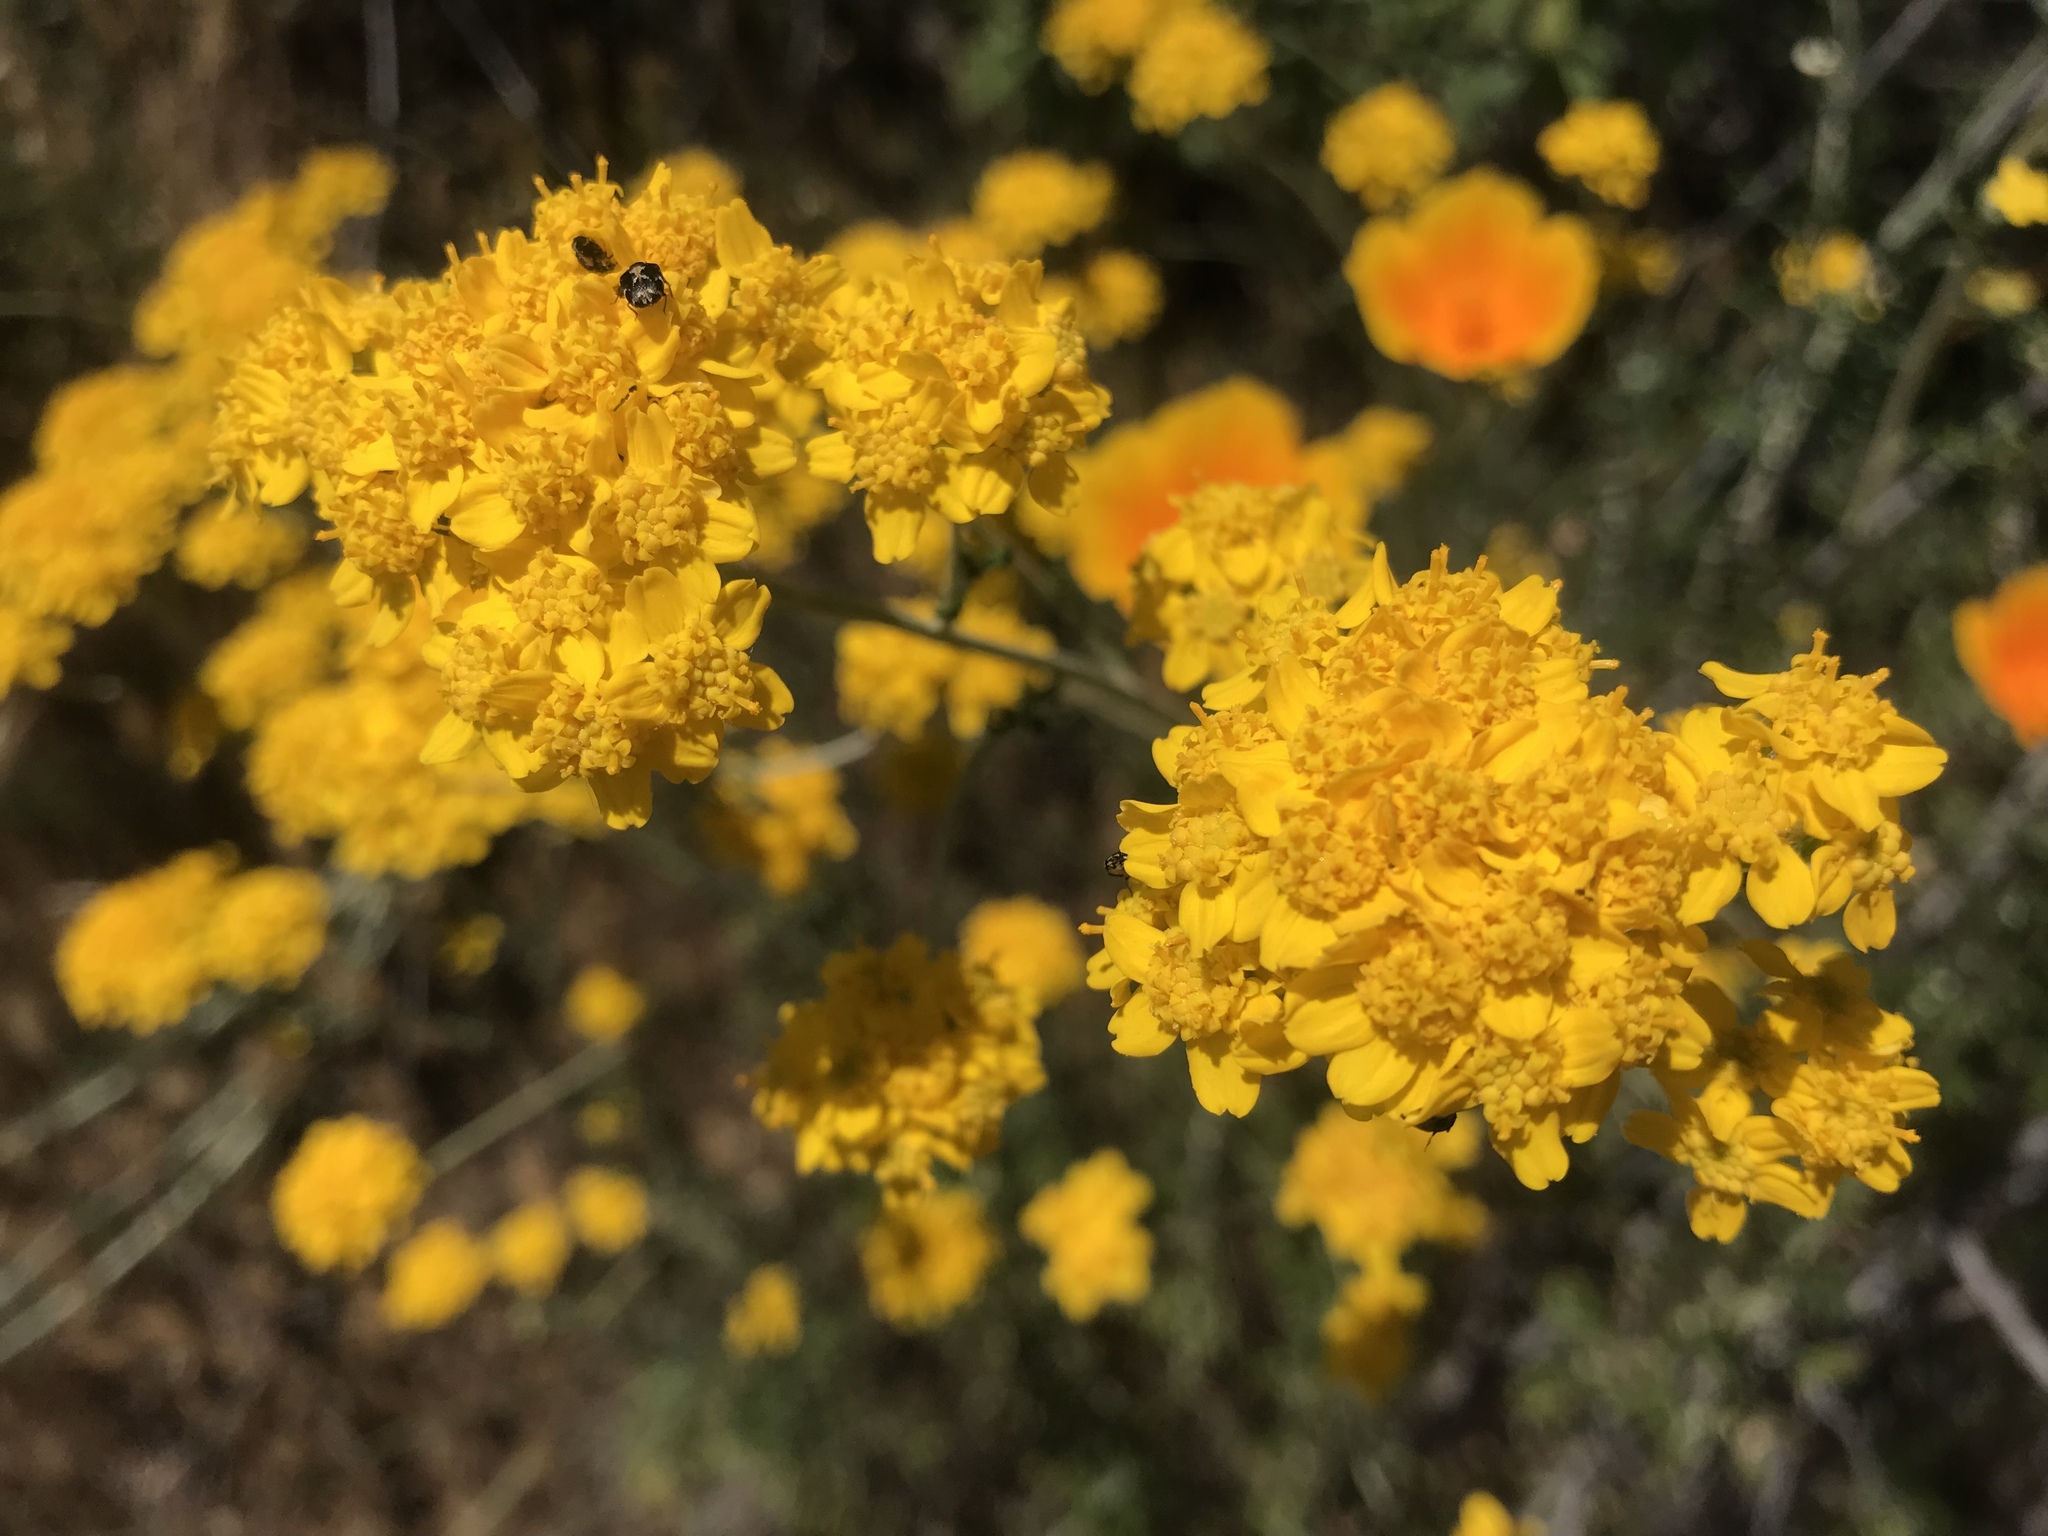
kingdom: Plantae
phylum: Tracheophyta
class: Magnoliopsida
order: Asterales
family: Asteraceae
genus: Eriophyllum
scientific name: Eriophyllum confertiflorum
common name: Golden-yarrow
